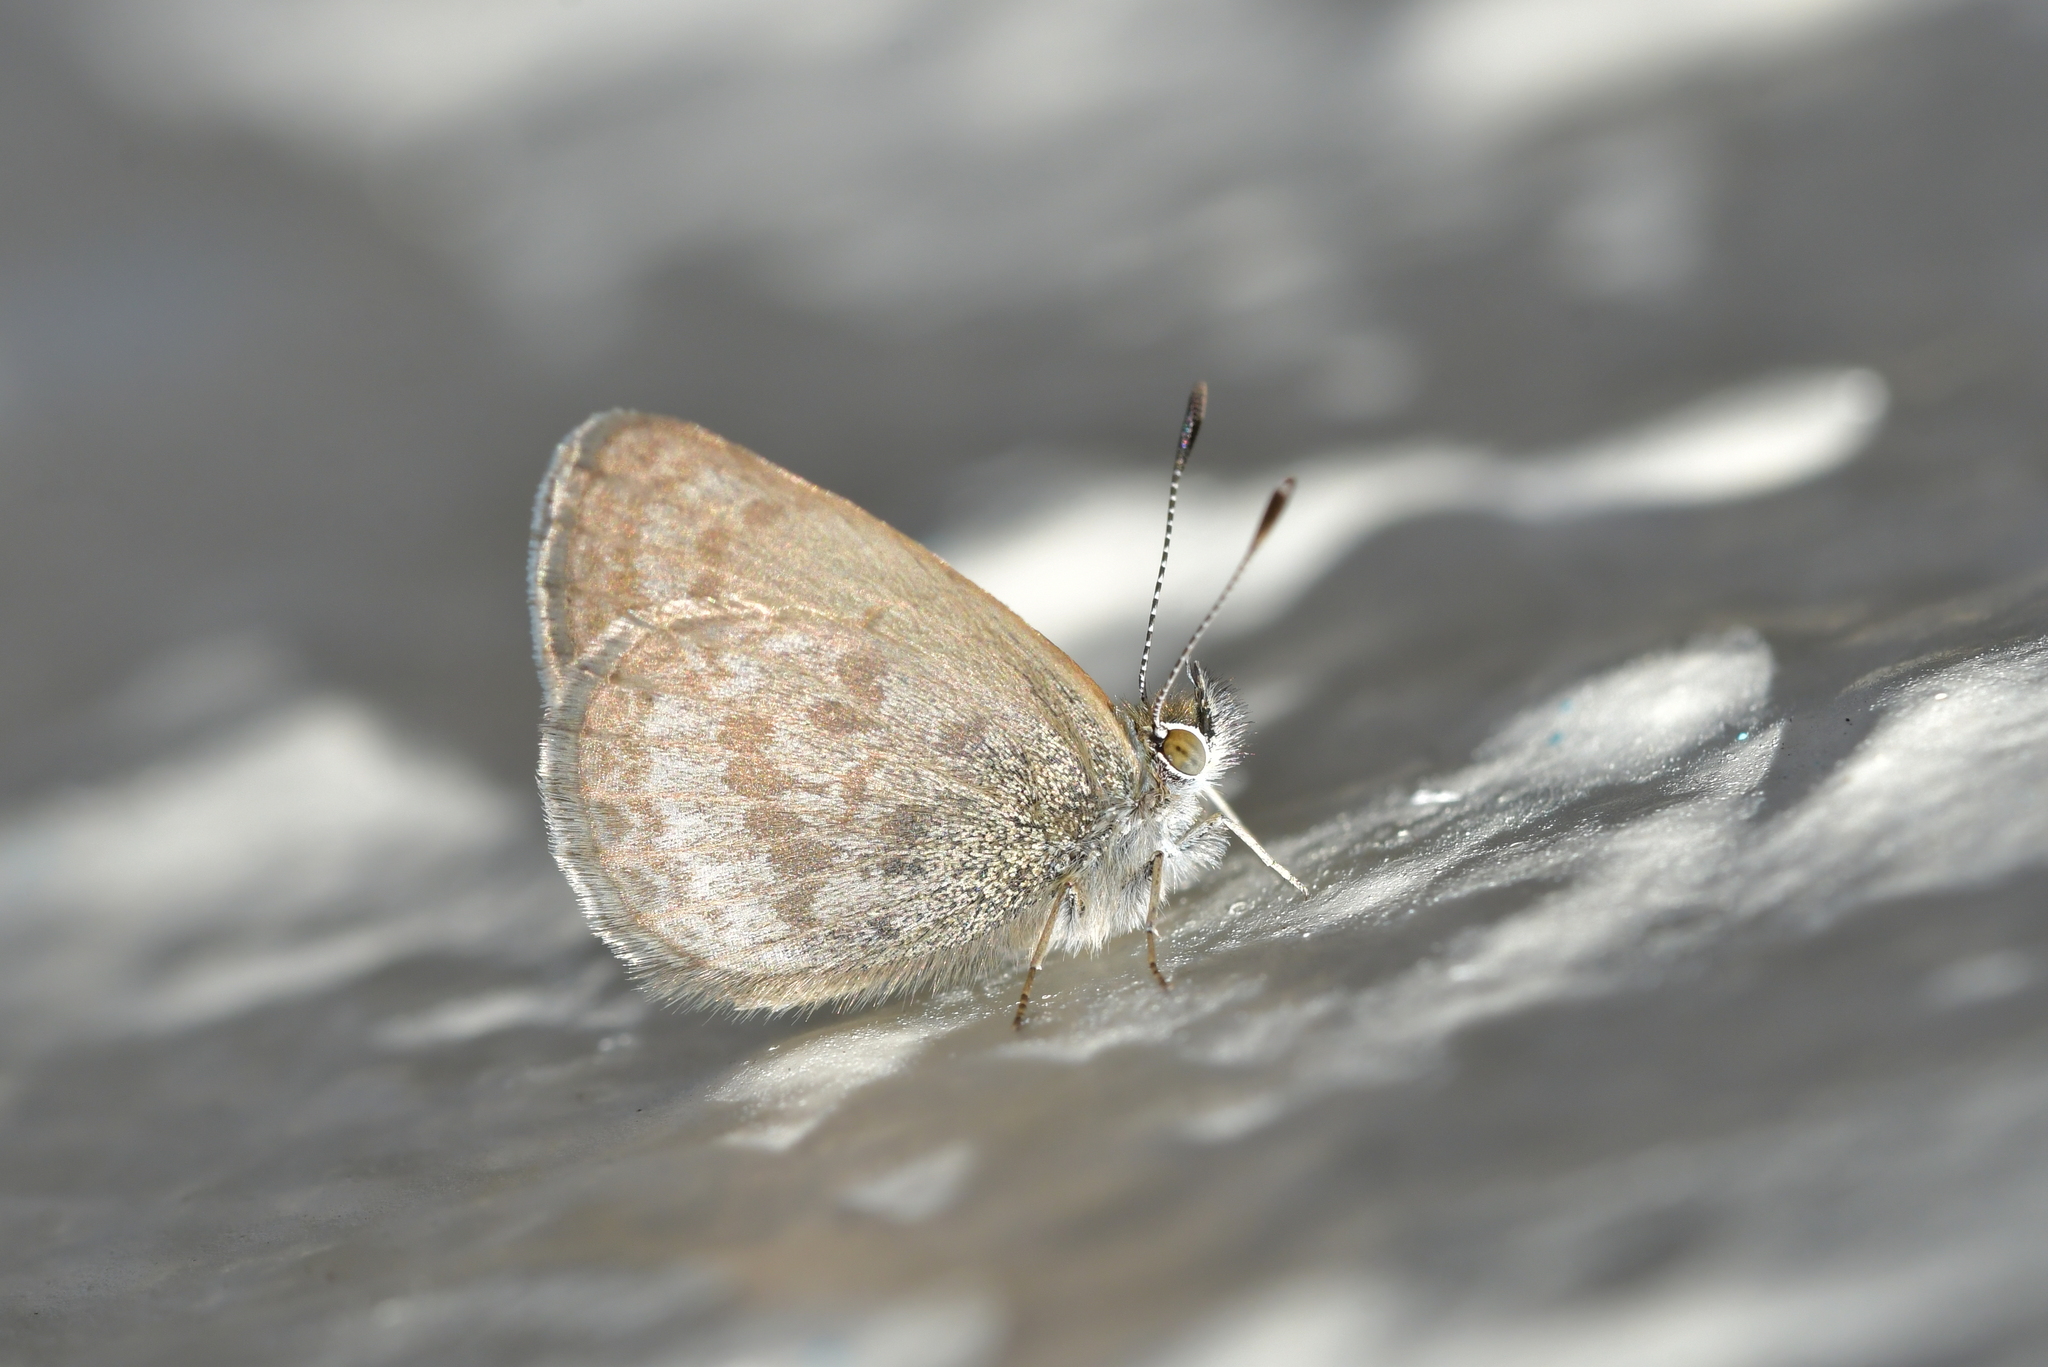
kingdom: Animalia
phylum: Arthropoda
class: Insecta
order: Lepidoptera
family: Lycaenidae
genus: Zizina
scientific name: Zizina labradus
